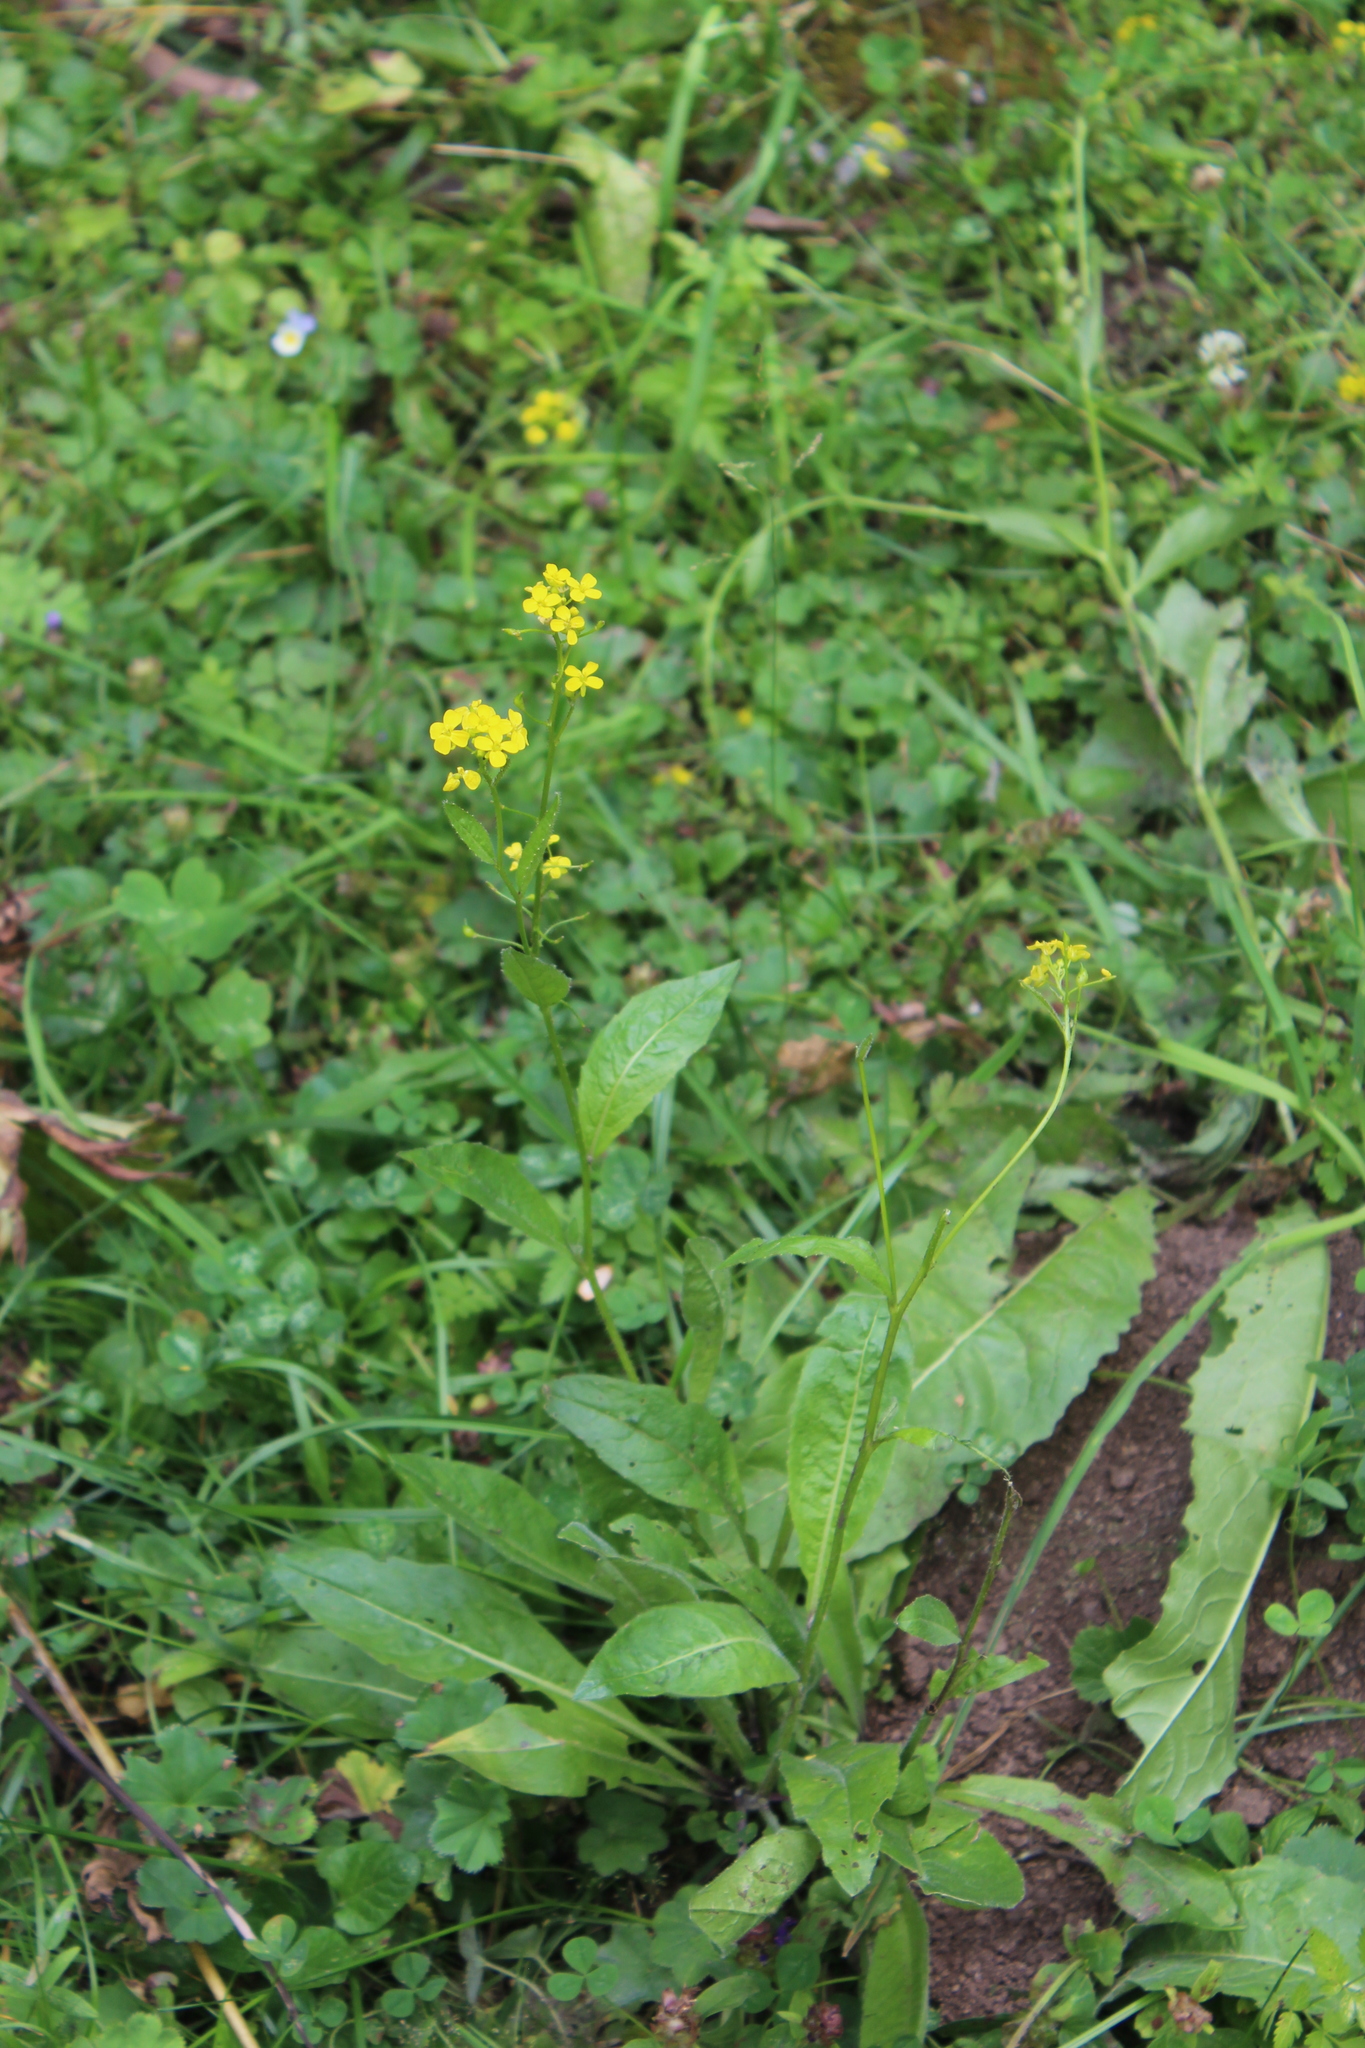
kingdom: Plantae
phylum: Tracheophyta
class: Magnoliopsida
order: Brassicales
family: Brassicaceae
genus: Bunias
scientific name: Bunias orientalis
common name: Warty-cabbage
